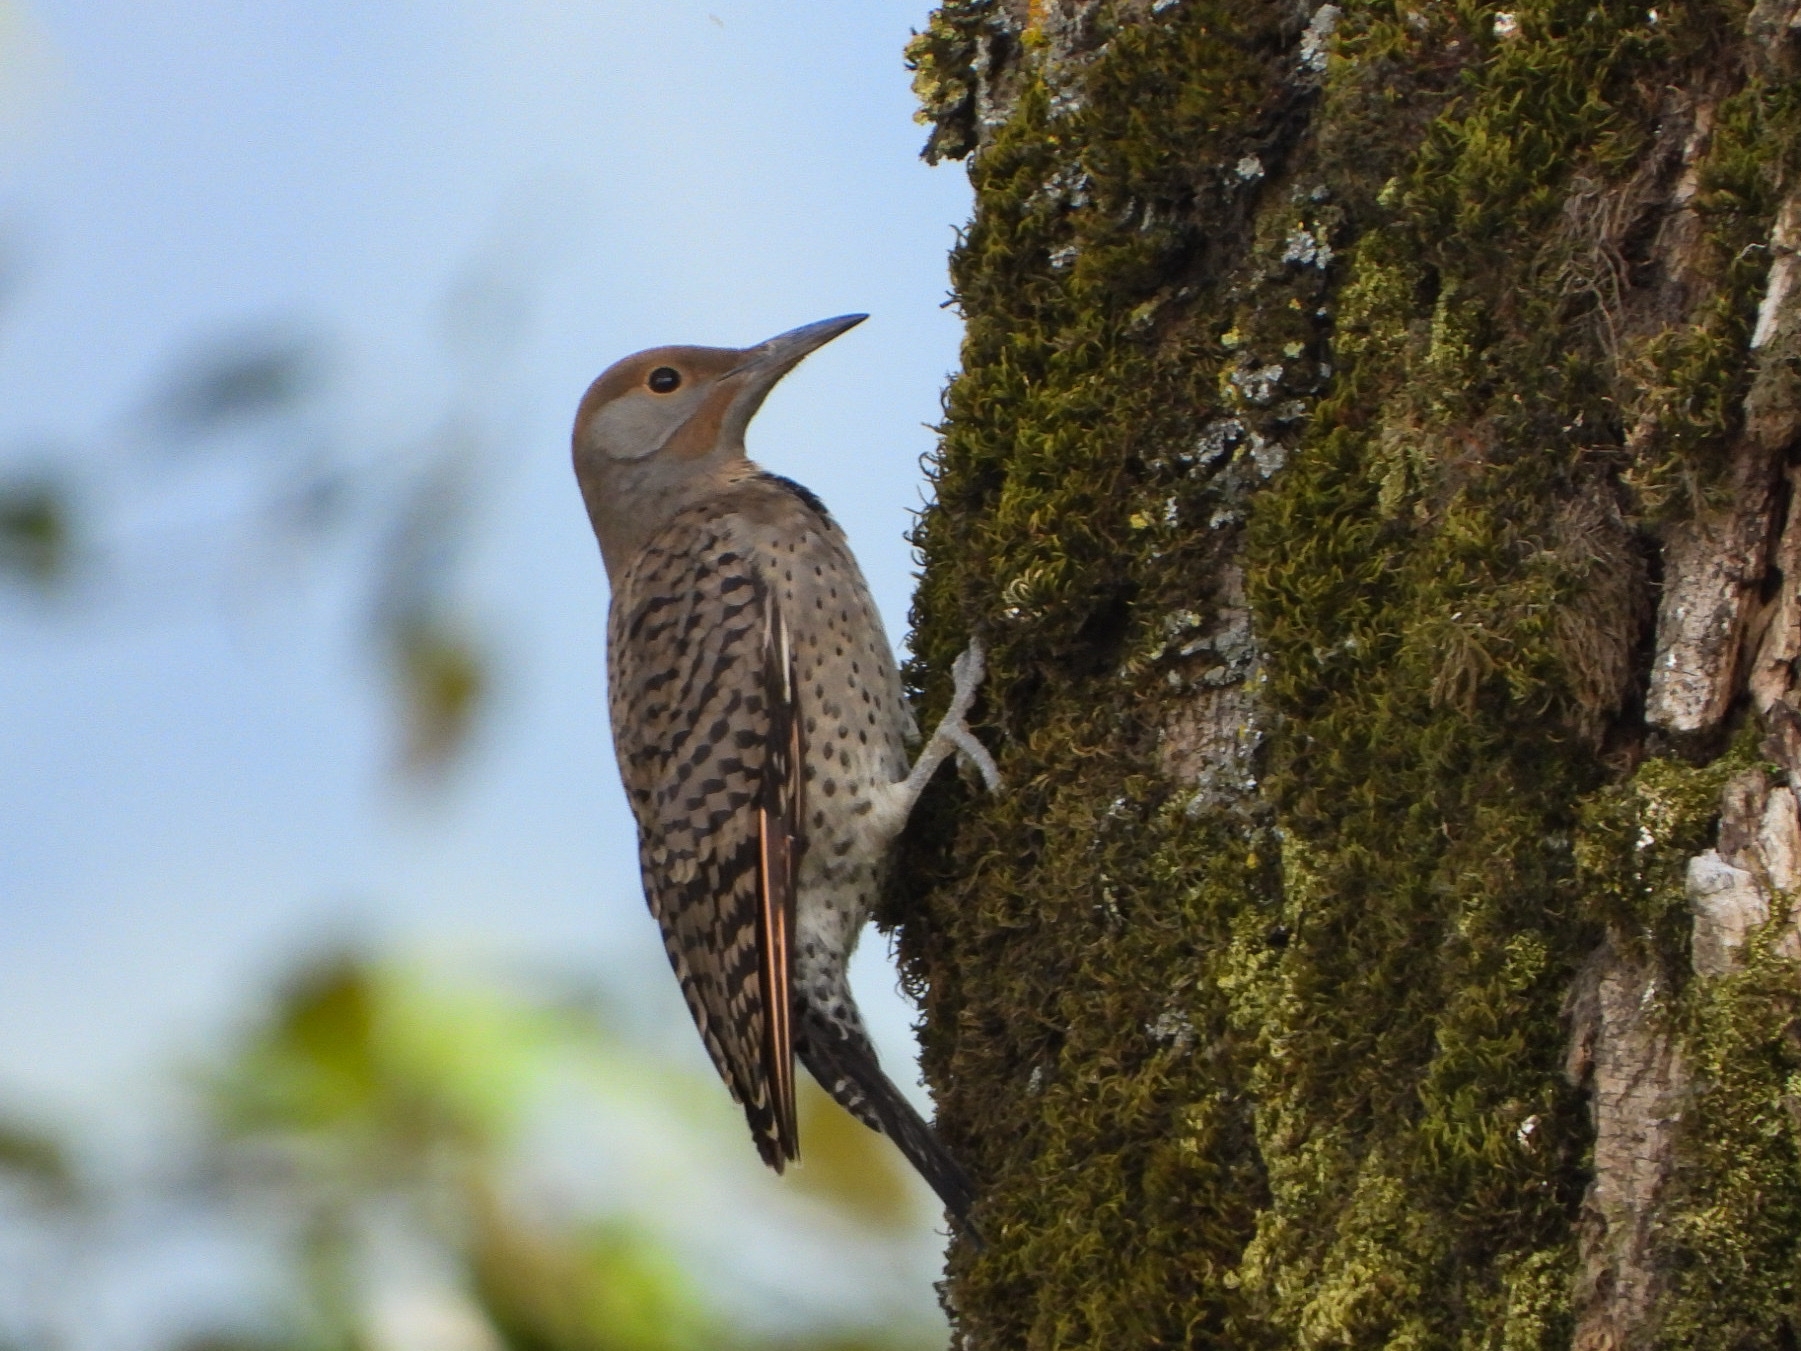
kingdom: Animalia
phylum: Chordata
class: Aves
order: Piciformes
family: Picidae
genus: Colaptes
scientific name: Colaptes auratus
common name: Northern flicker
